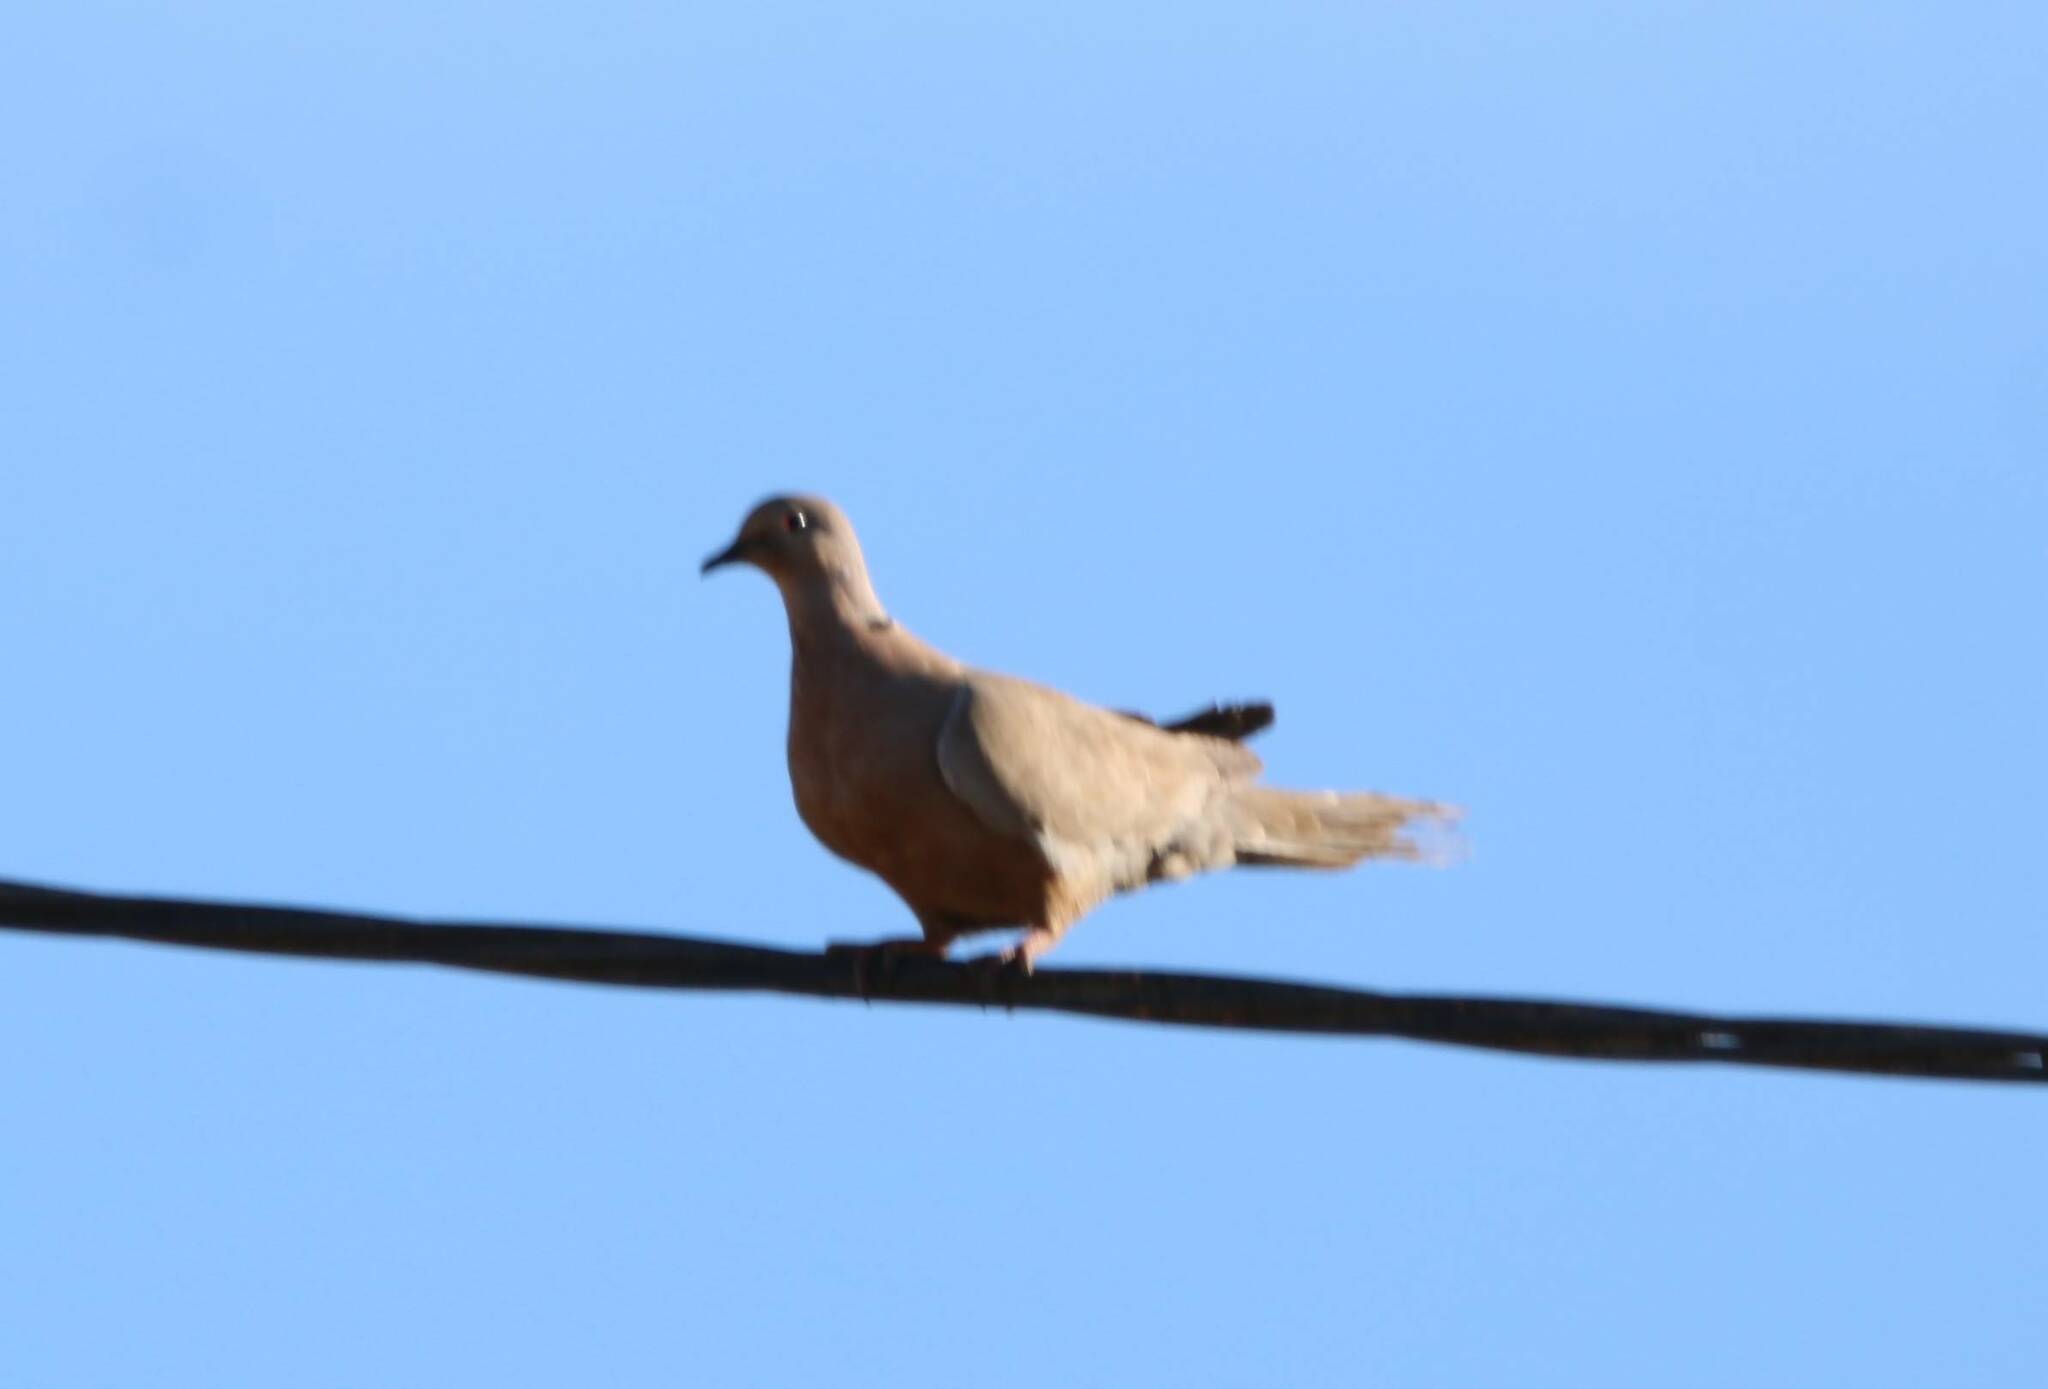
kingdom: Animalia
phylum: Chordata
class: Aves
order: Columbiformes
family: Columbidae
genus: Streptopelia
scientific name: Streptopelia decaocto
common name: Eurasian collared dove
